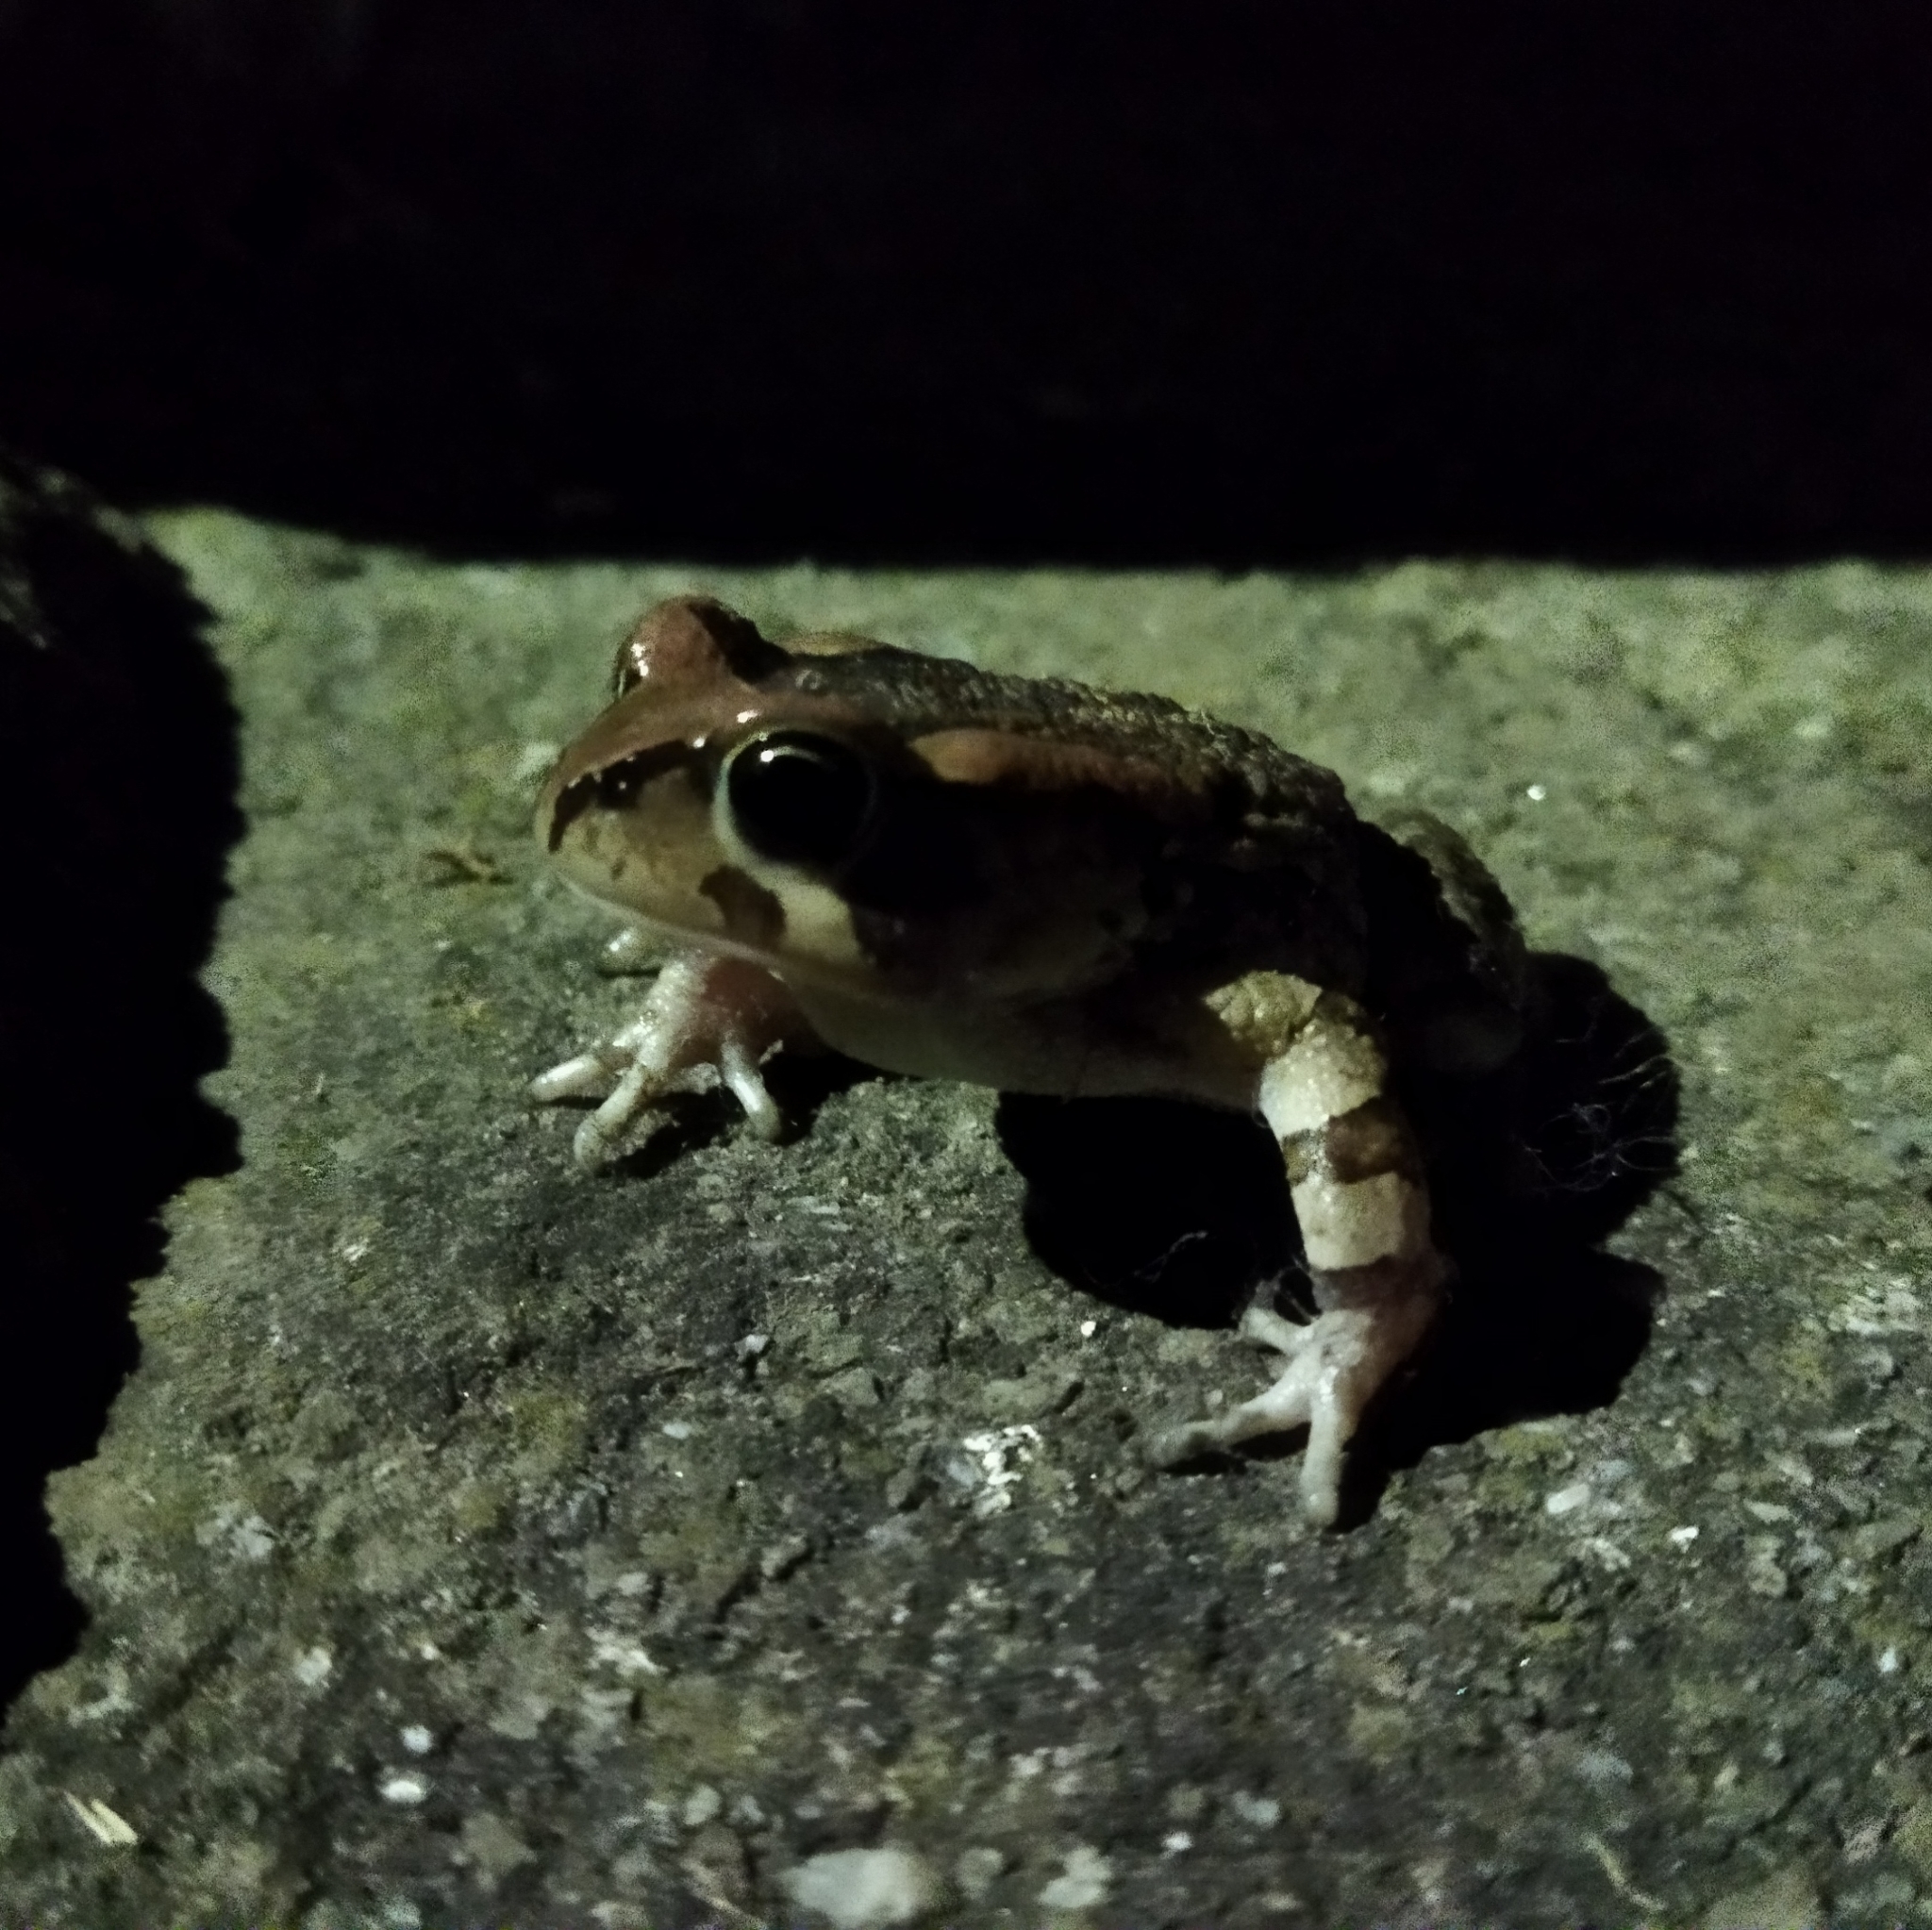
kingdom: Animalia
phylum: Chordata
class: Amphibia
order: Anura
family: Bufonidae
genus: Sclerophrys
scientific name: Sclerophrys capensis
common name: Ranger’s toad
